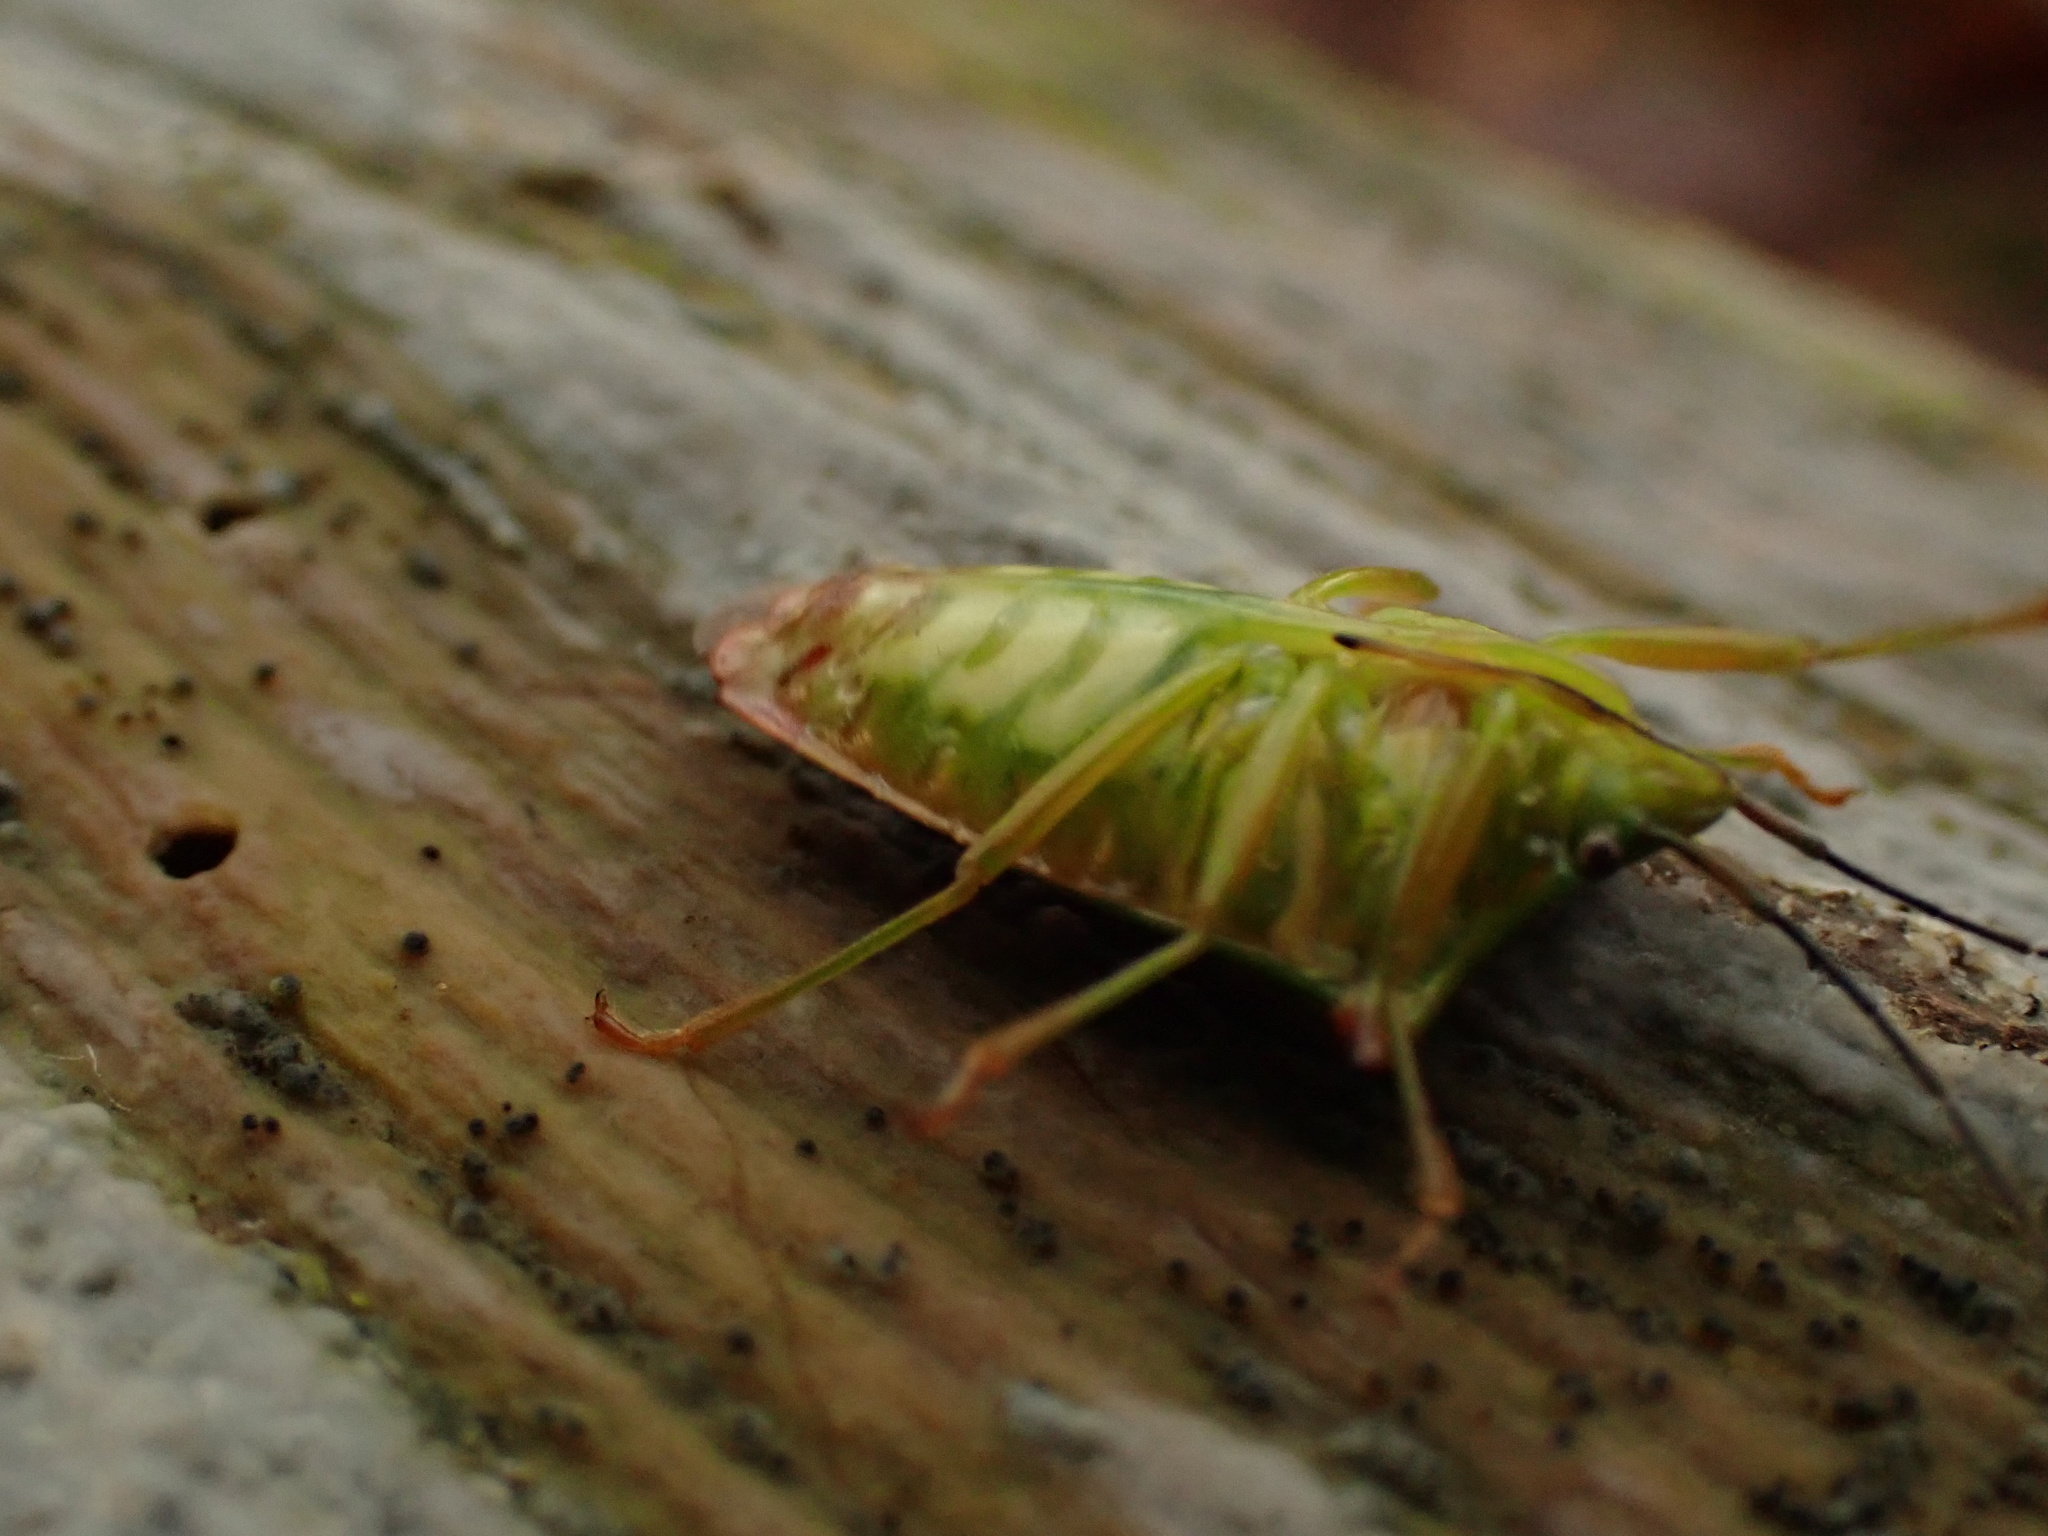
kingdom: Animalia
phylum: Arthropoda
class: Insecta
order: Hemiptera
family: Acanthosomatidae
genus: Acanthosoma
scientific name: Acanthosoma haemorrhoidale
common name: Hawthorn shieldbug
